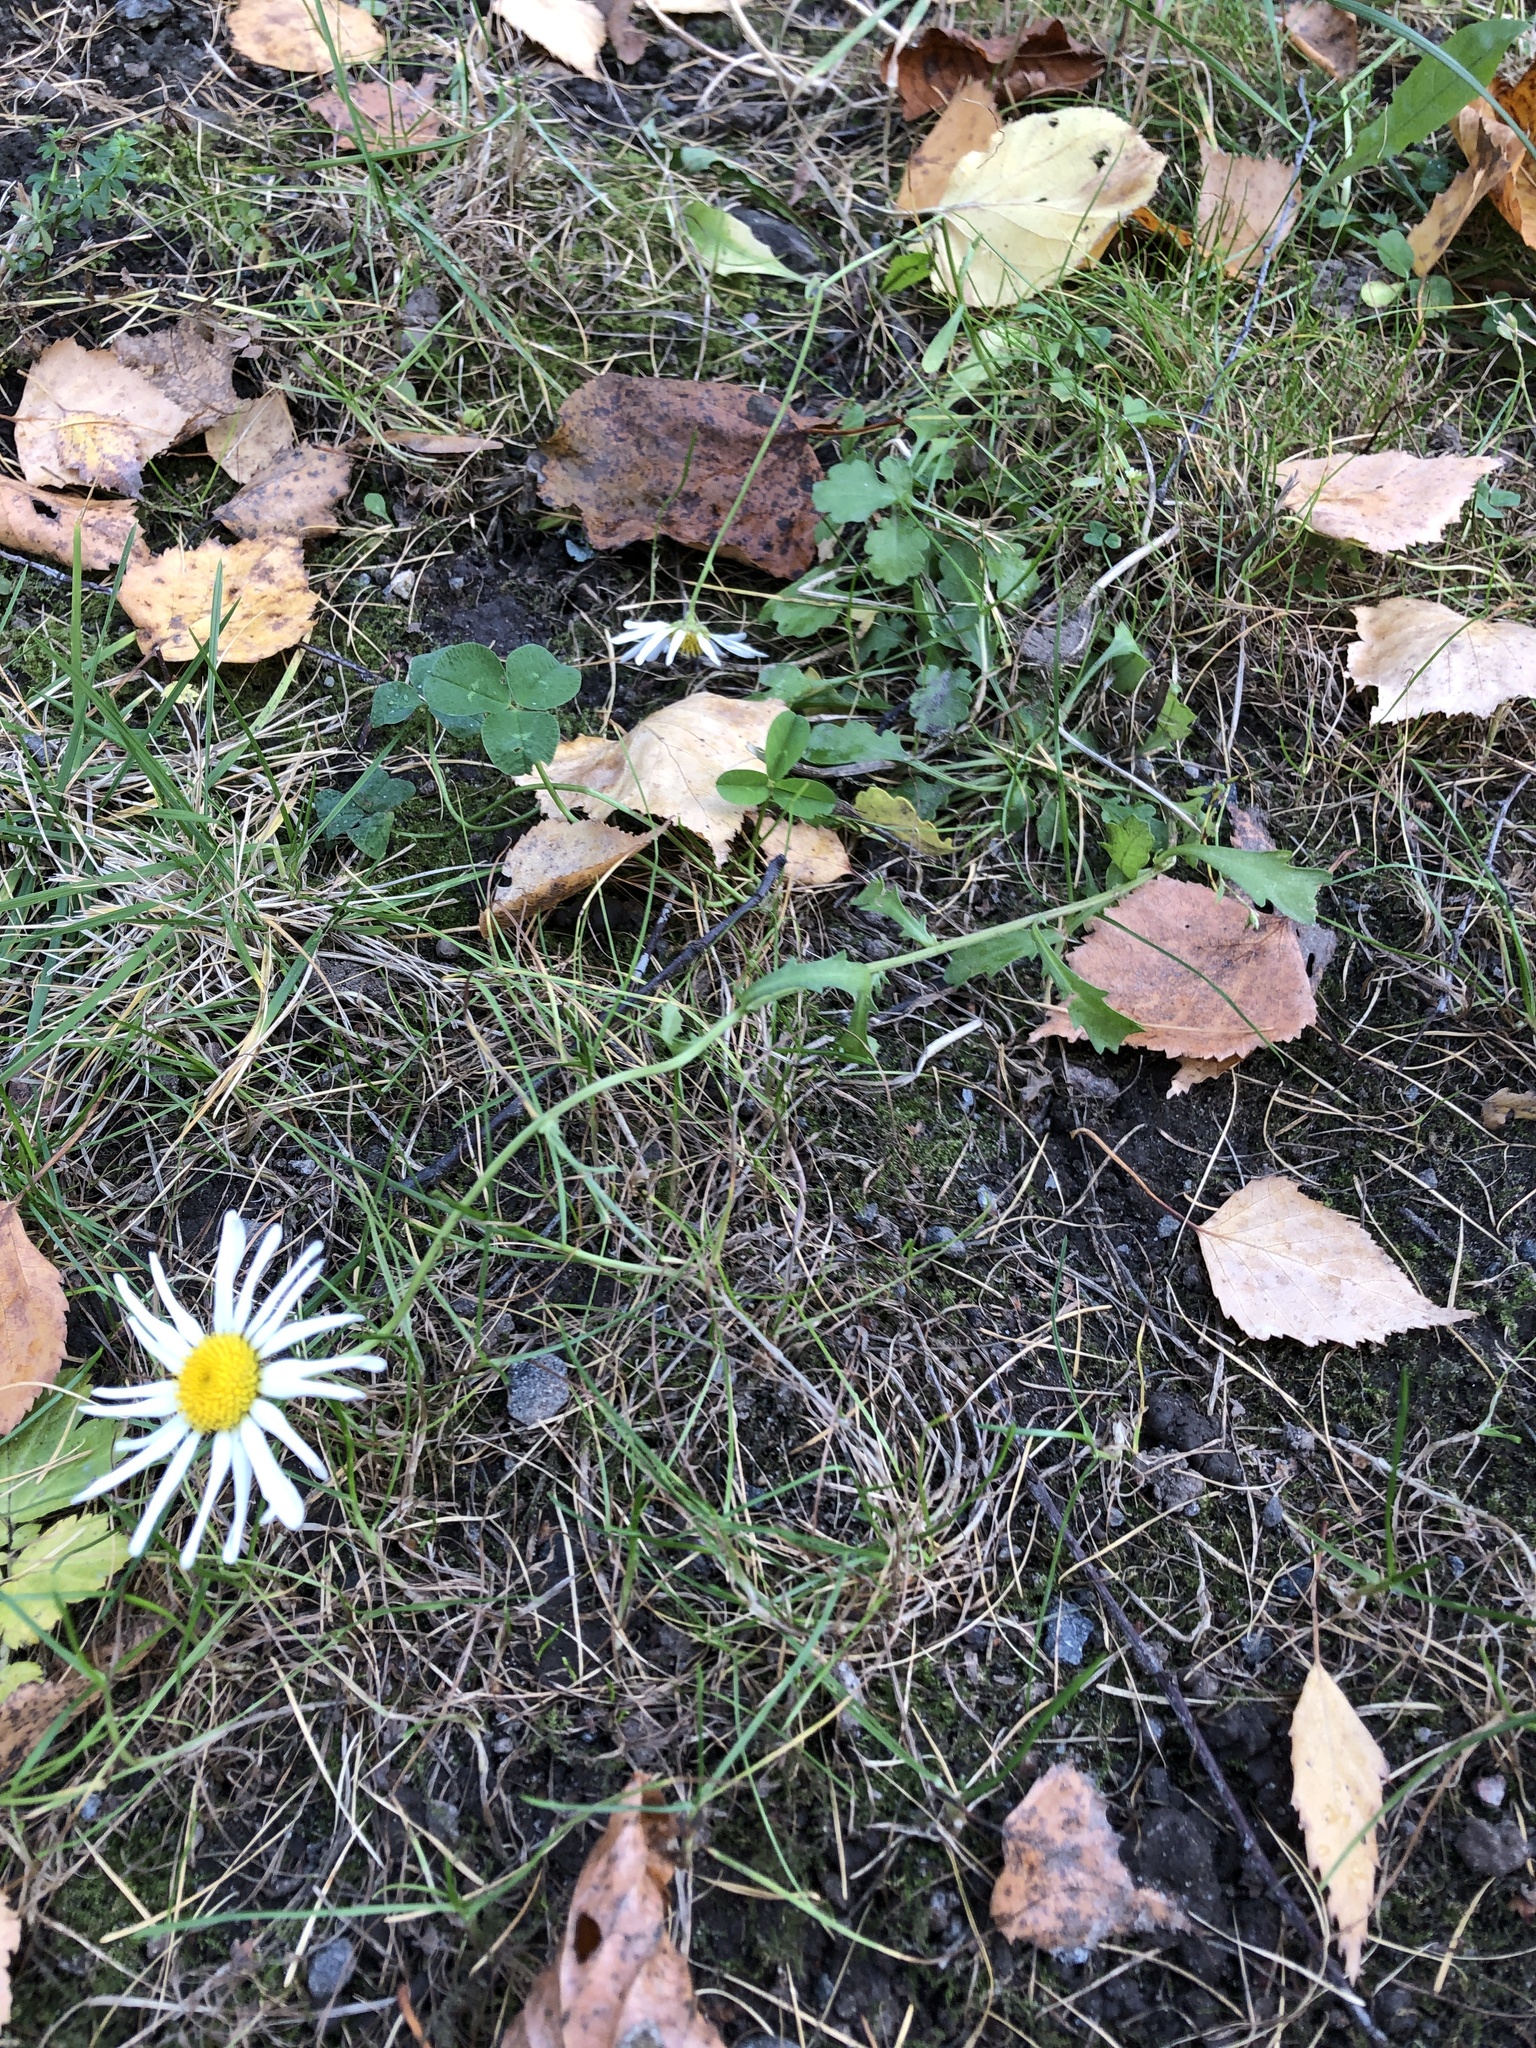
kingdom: Plantae
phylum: Tracheophyta
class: Magnoliopsida
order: Asterales
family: Asteraceae
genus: Leucanthemum
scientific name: Leucanthemum vulgare
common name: Oxeye daisy
